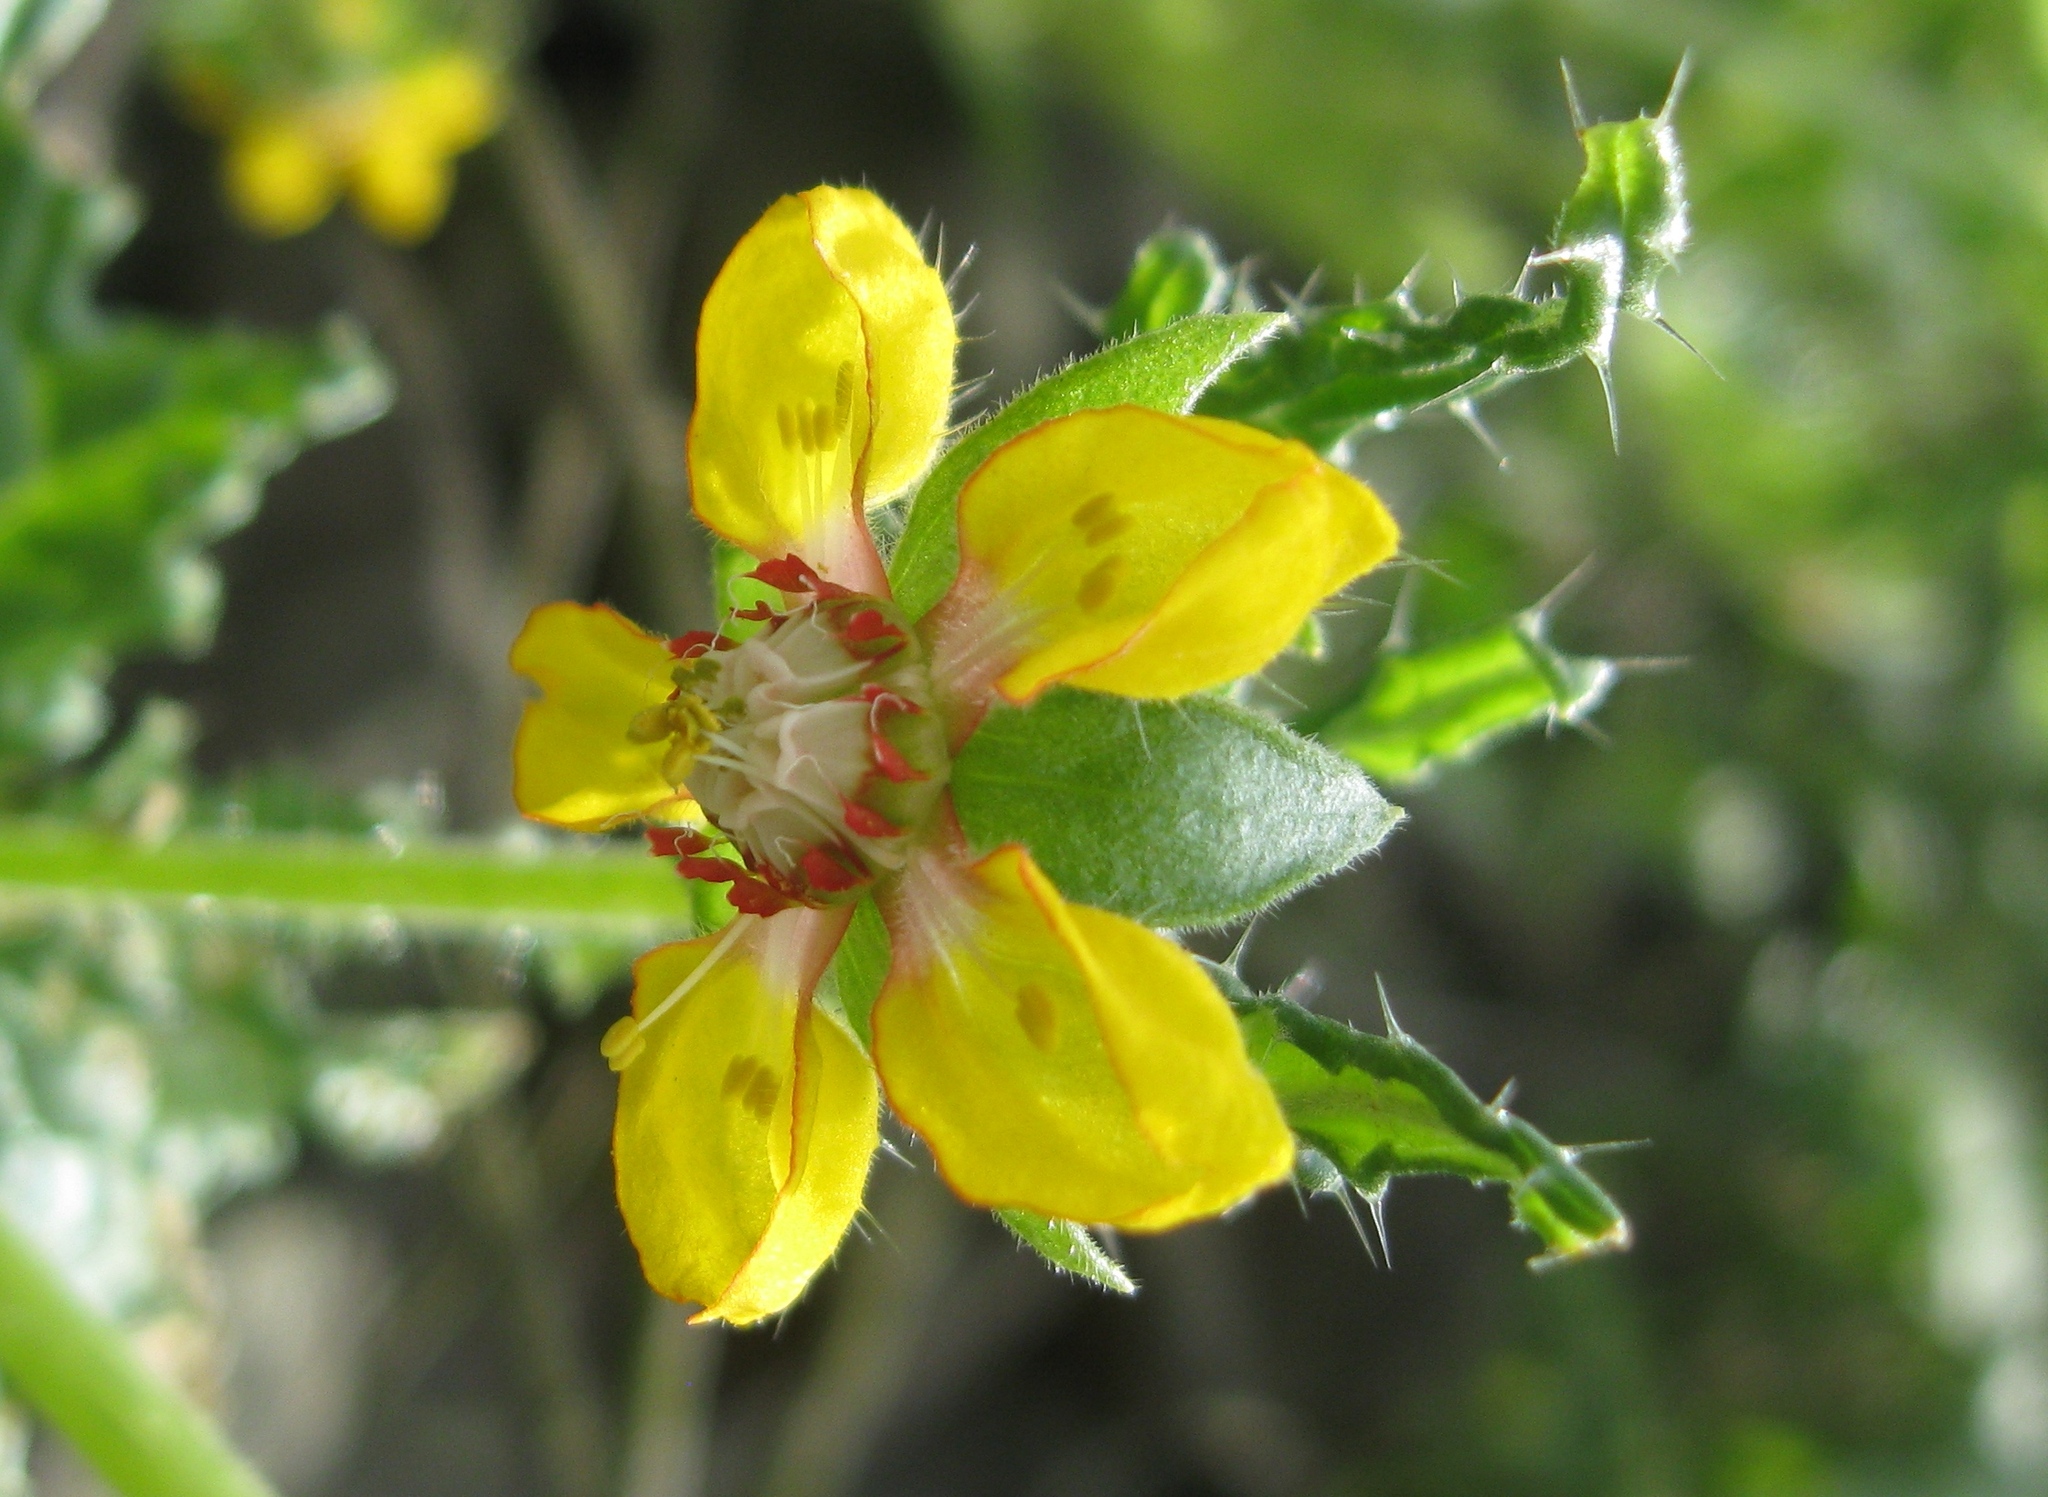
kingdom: Plantae
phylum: Tracheophyta
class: Magnoliopsida
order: Cornales
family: Loasaceae
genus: Loasa
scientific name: Loasa nitida
